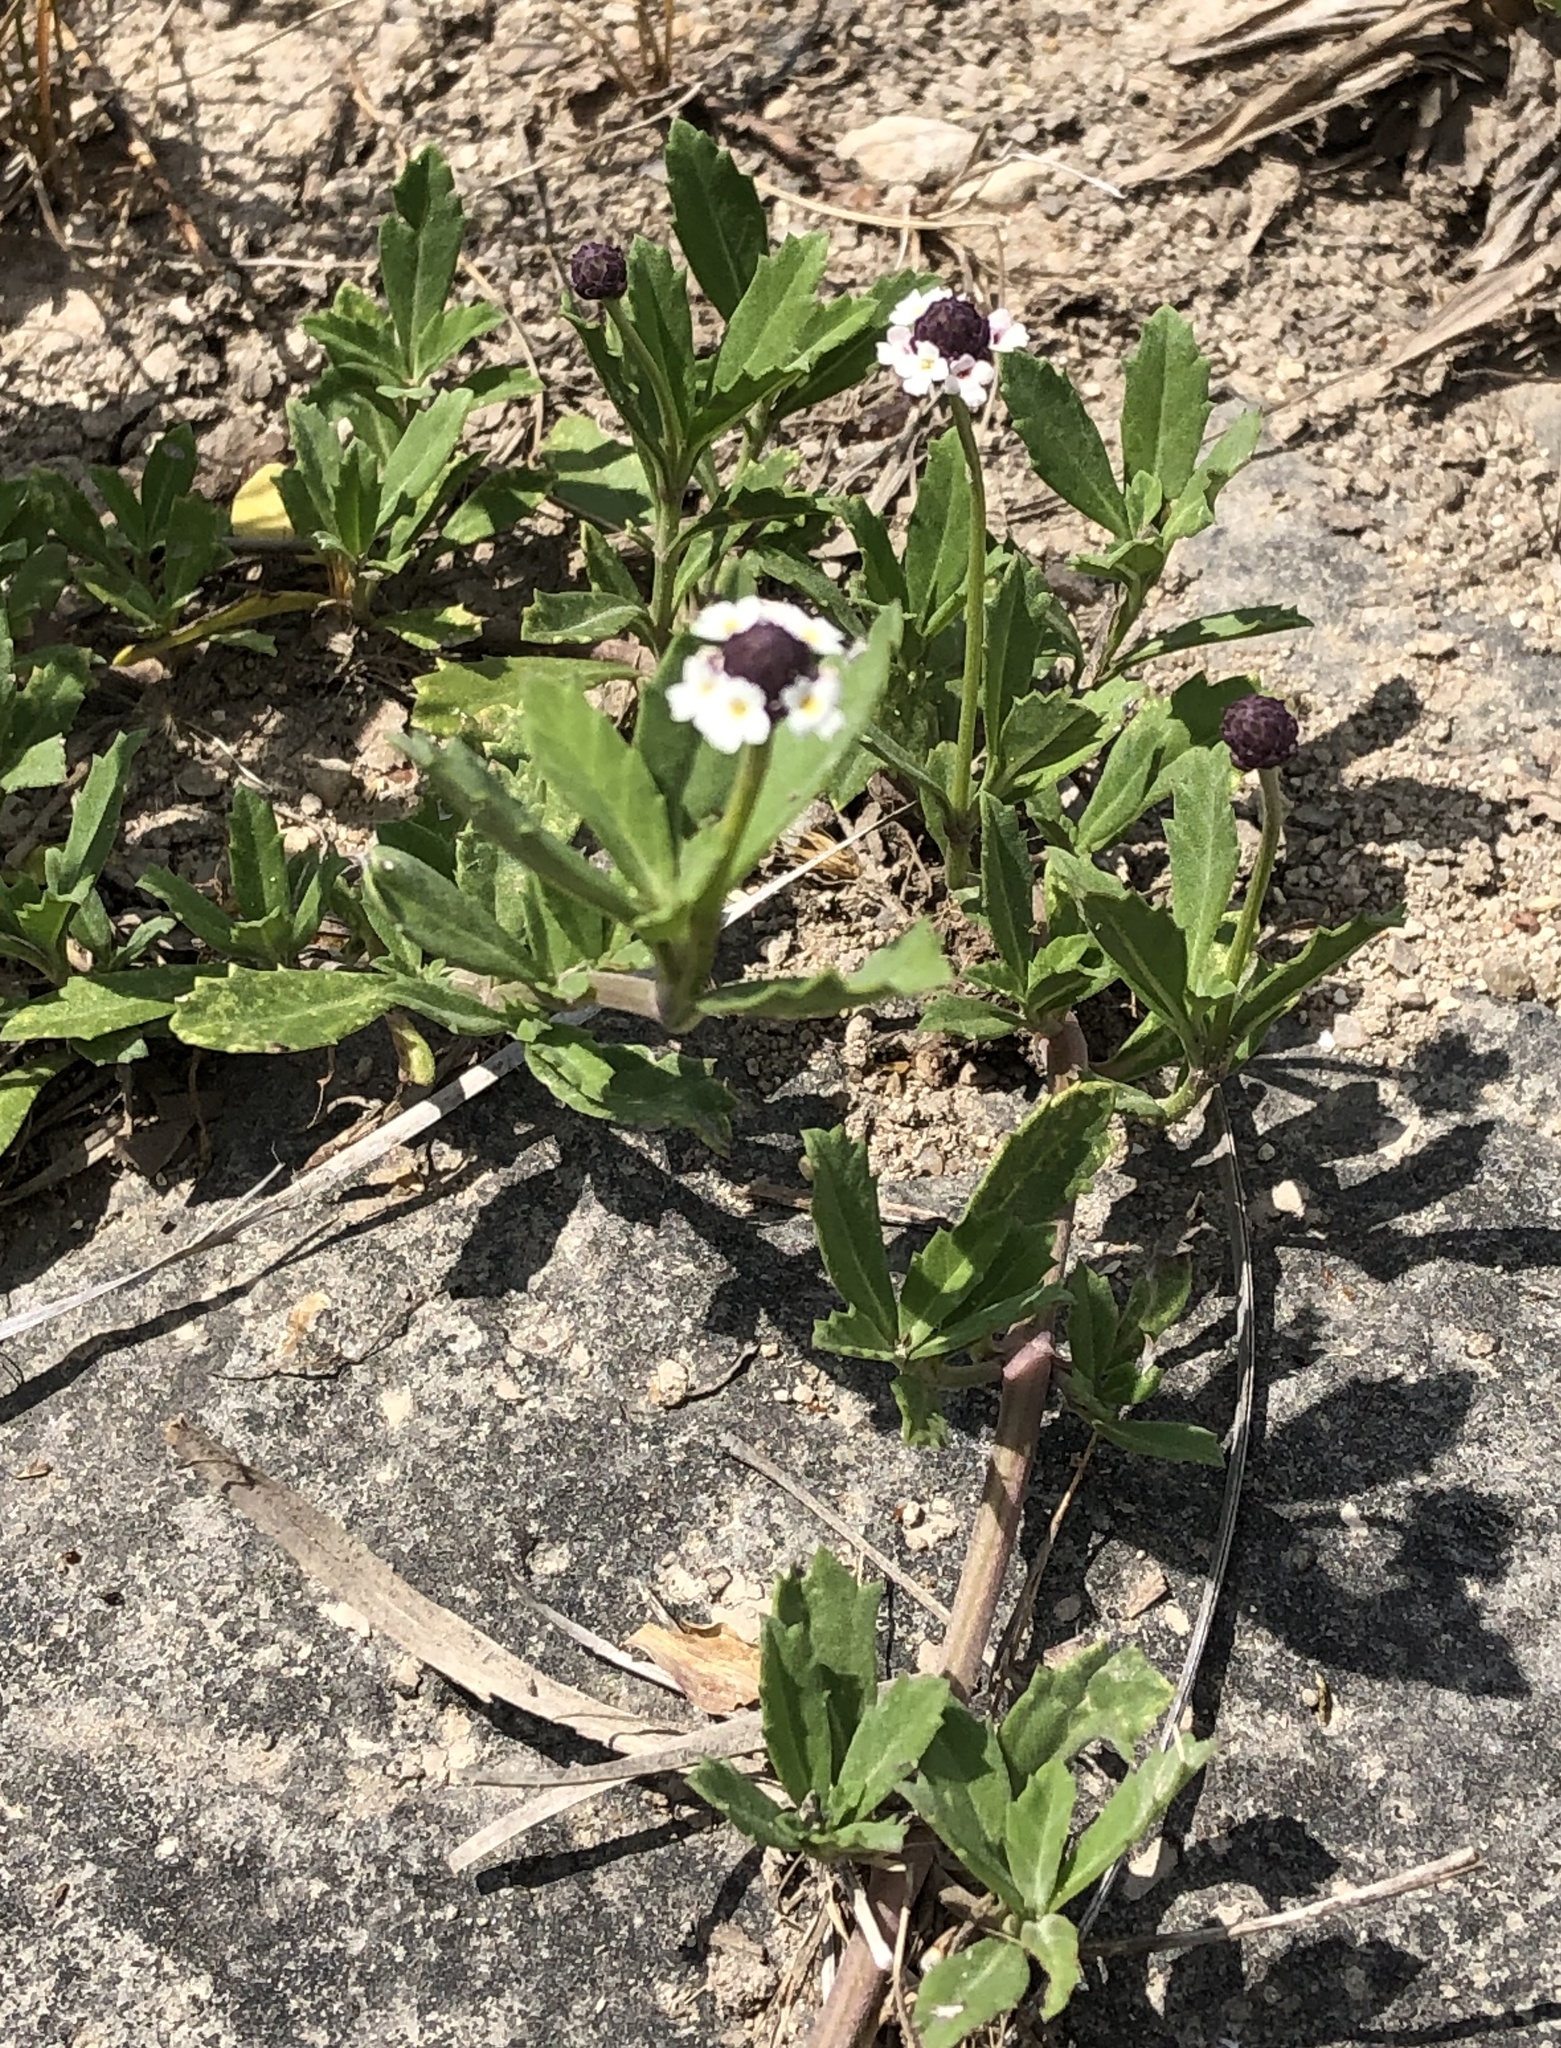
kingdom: Plantae
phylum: Tracheophyta
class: Magnoliopsida
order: Lamiales
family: Verbenaceae
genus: Phyla
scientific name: Phyla nodiflora
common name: Frogfruit
